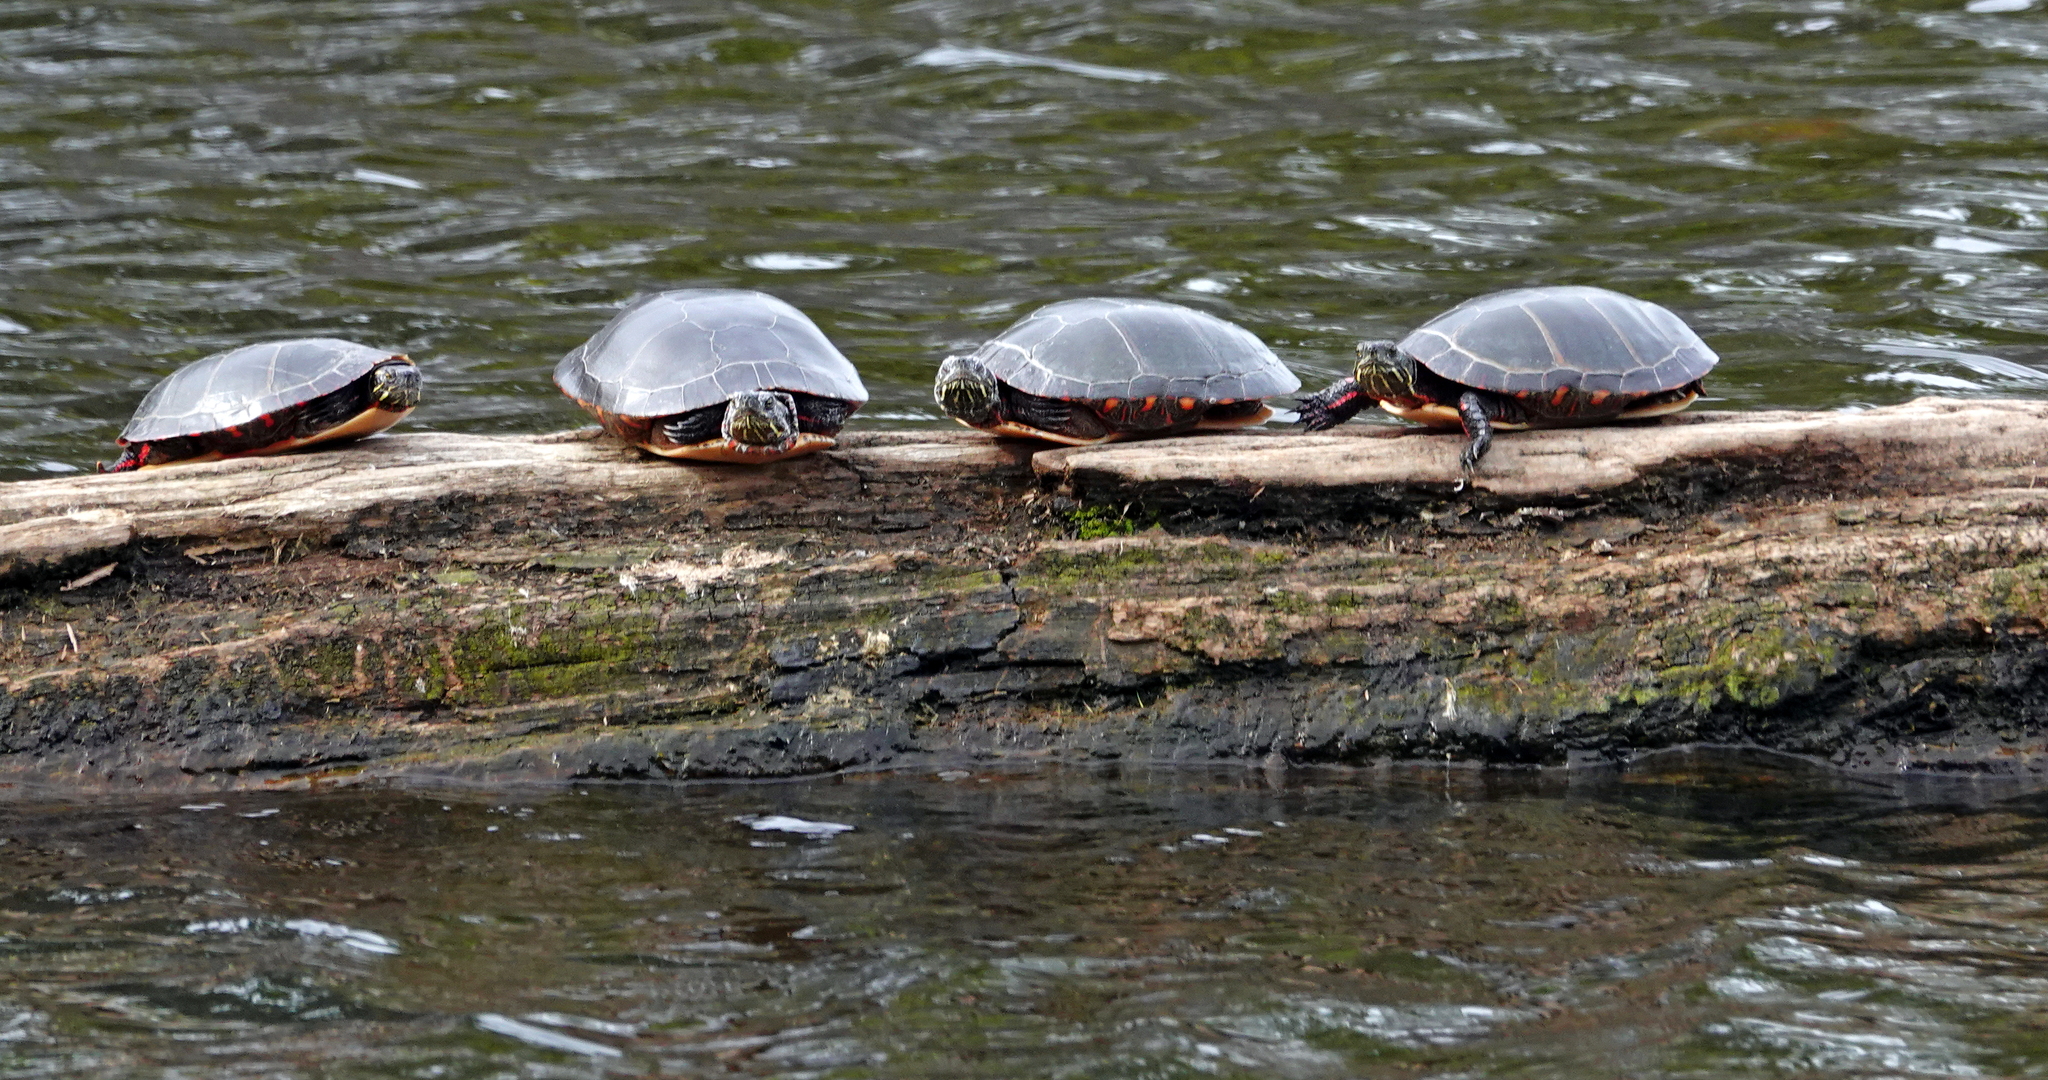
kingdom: Animalia
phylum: Chordata
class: Testudines
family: Emydidae
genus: Chrysemys
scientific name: Chrysemys picta
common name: Painted turtle
